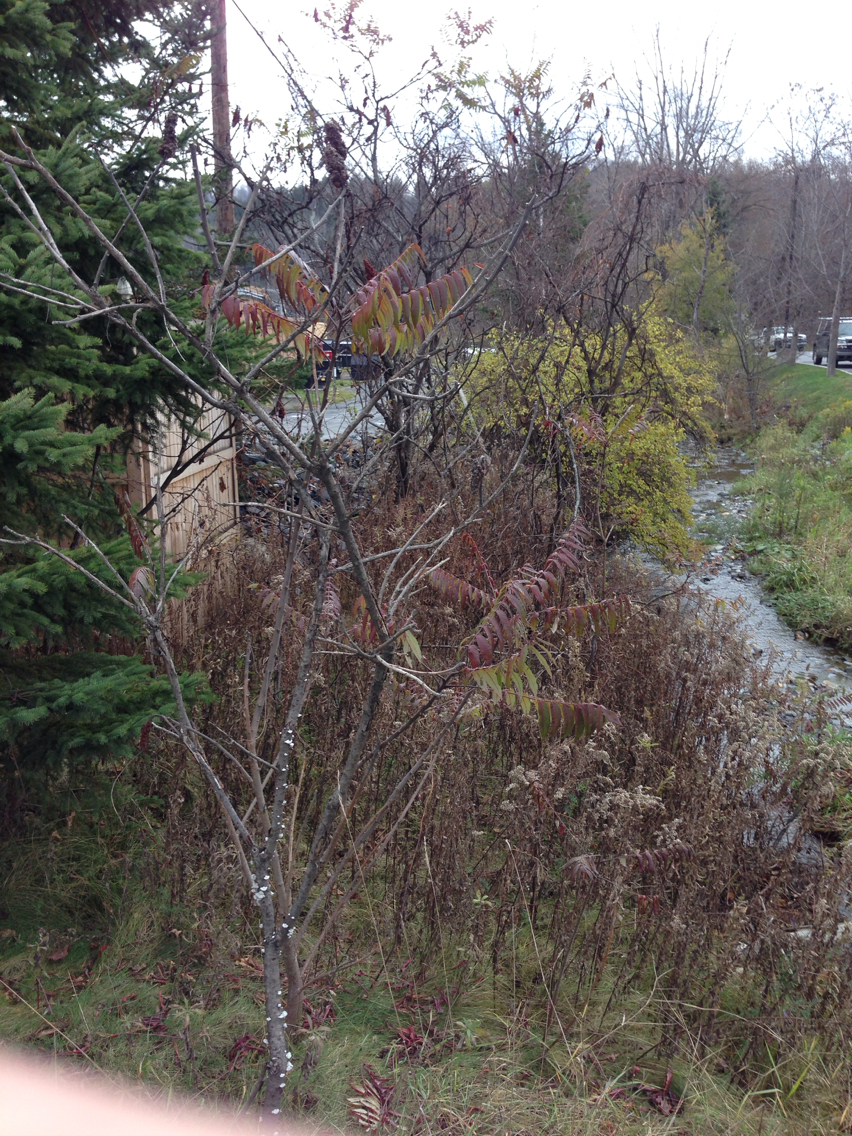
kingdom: Plantae
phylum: Tracheophyta
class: Magnoliopsida
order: Sapindales
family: Anacardiaceae
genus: Rhus
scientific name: Rhus typhina
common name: Staghorn sumac
